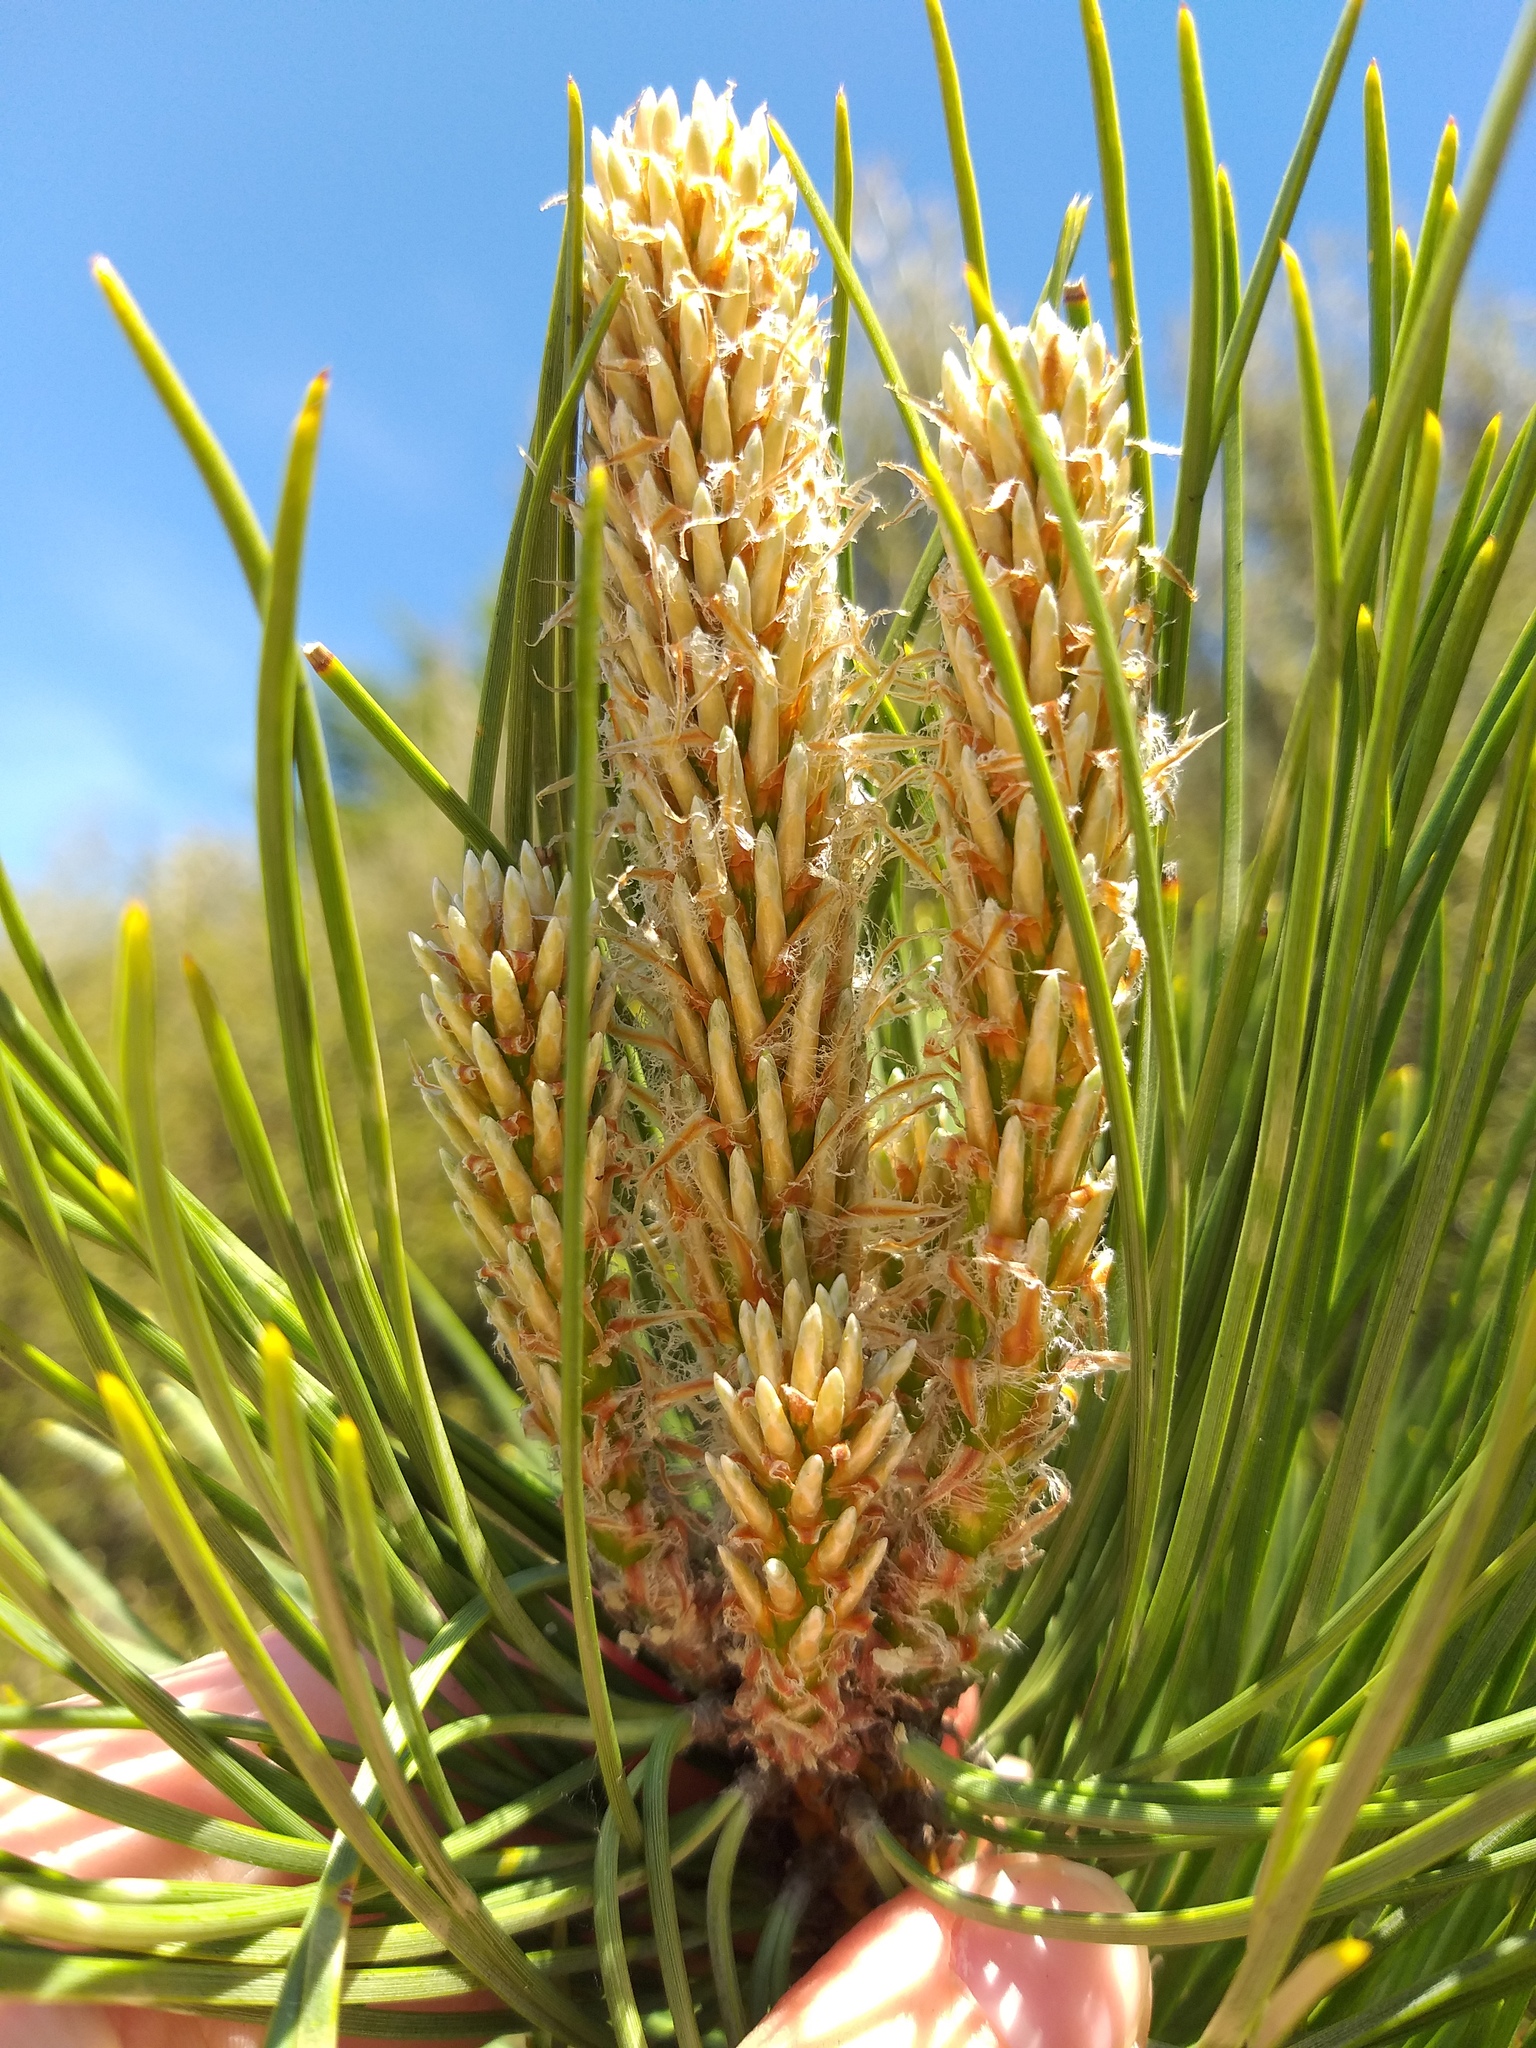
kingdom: Plantae
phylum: Tracheophyta
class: Pinopsida
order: Pinales
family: Pinaceae
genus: Pinus
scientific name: Pinus nigra
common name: Austrian pine
